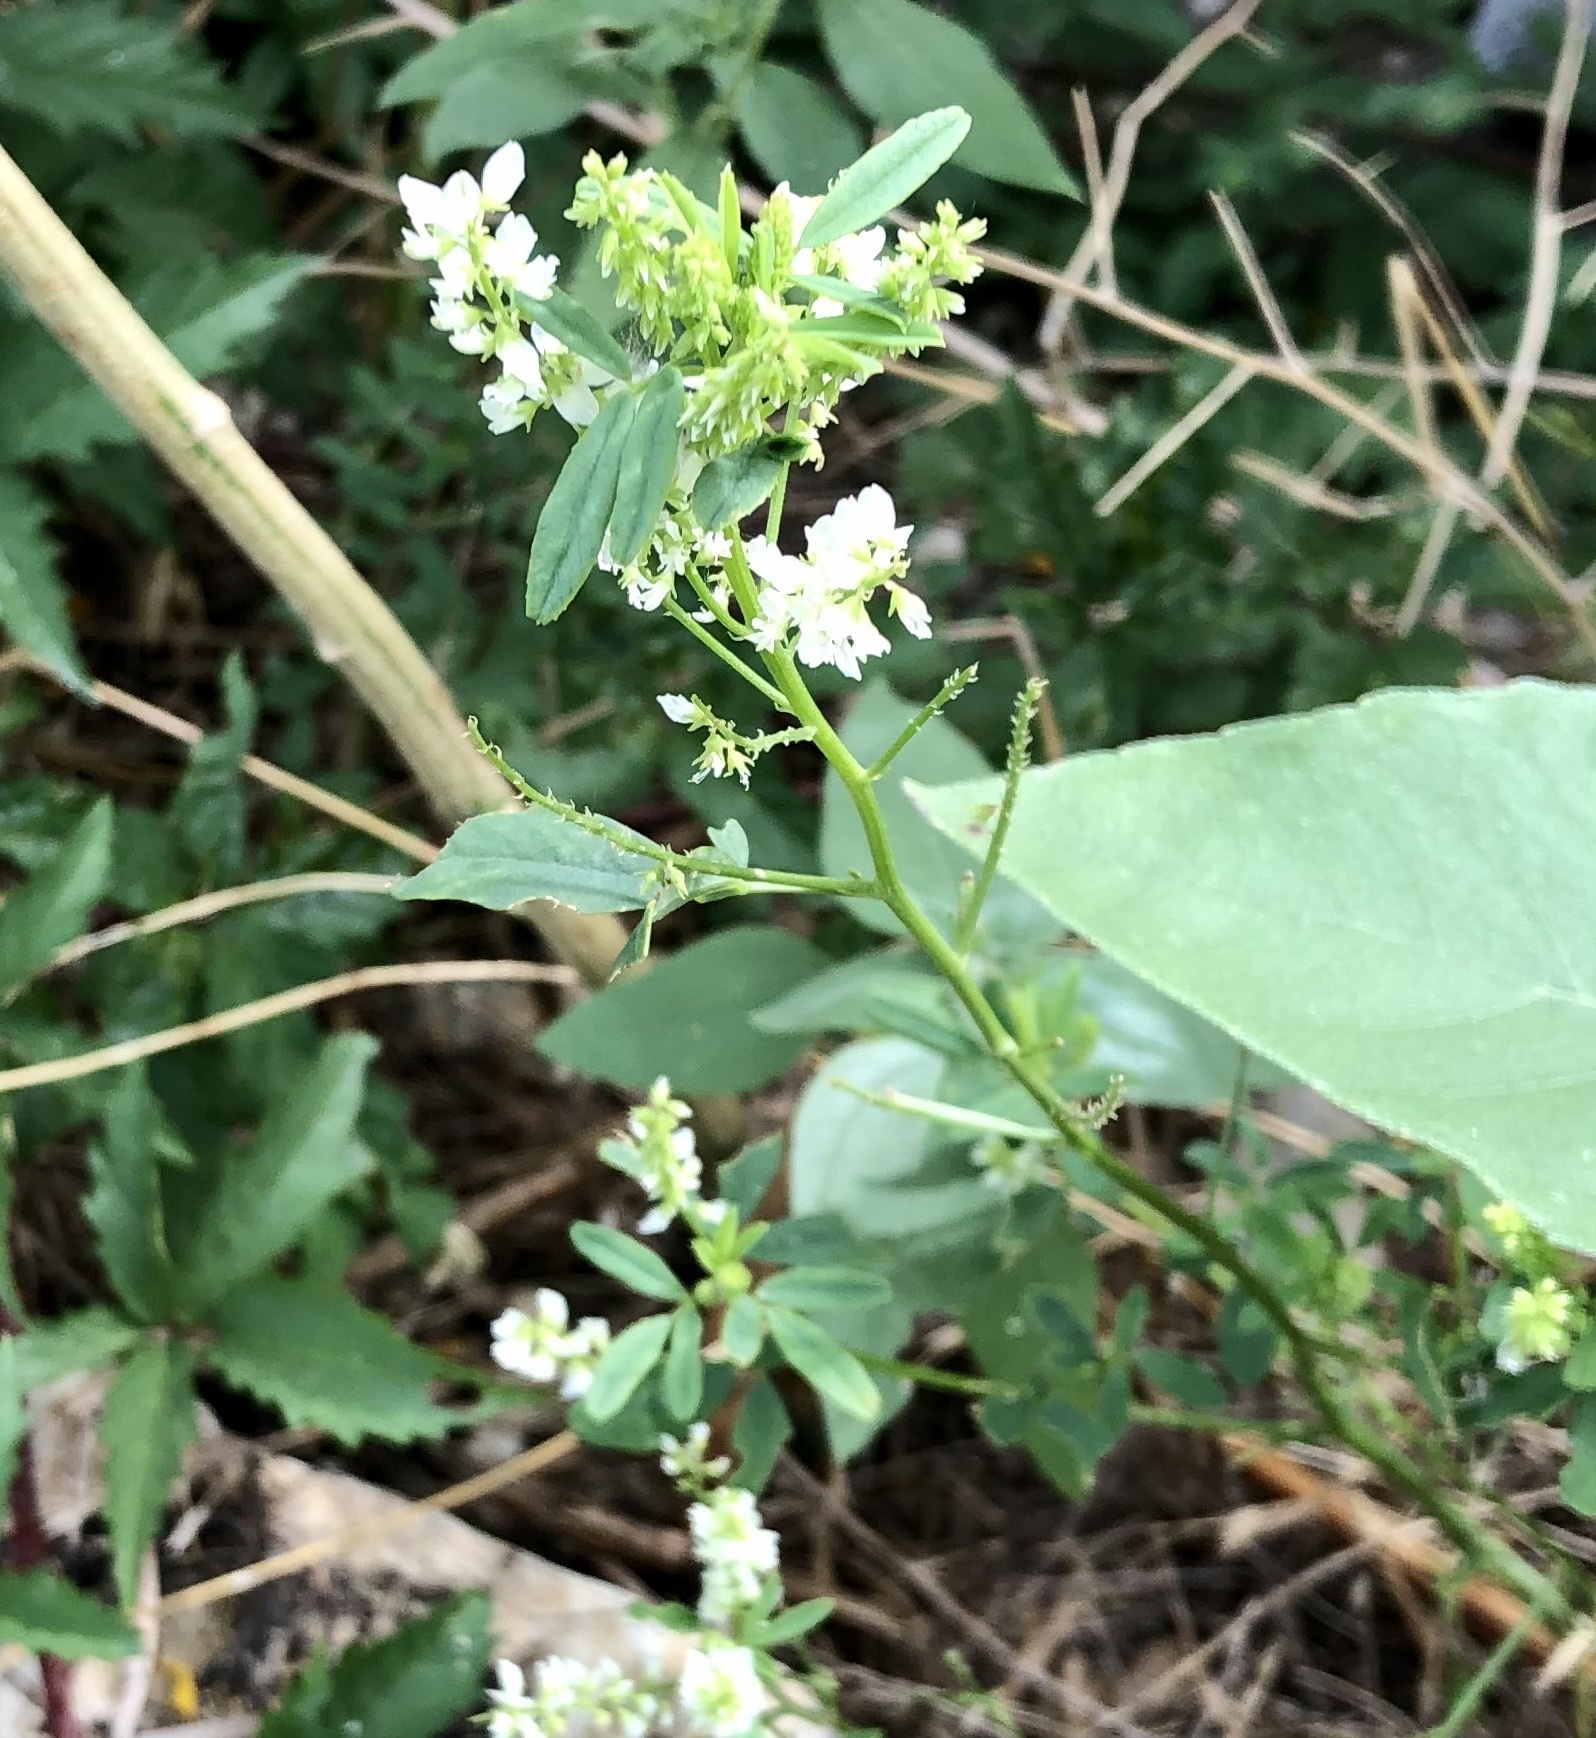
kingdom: Plantae
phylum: Tracheophyta
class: Magnoliopsida
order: Fabales
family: Fabaceae
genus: Melilotus
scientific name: Melilotus albus
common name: White melilot
